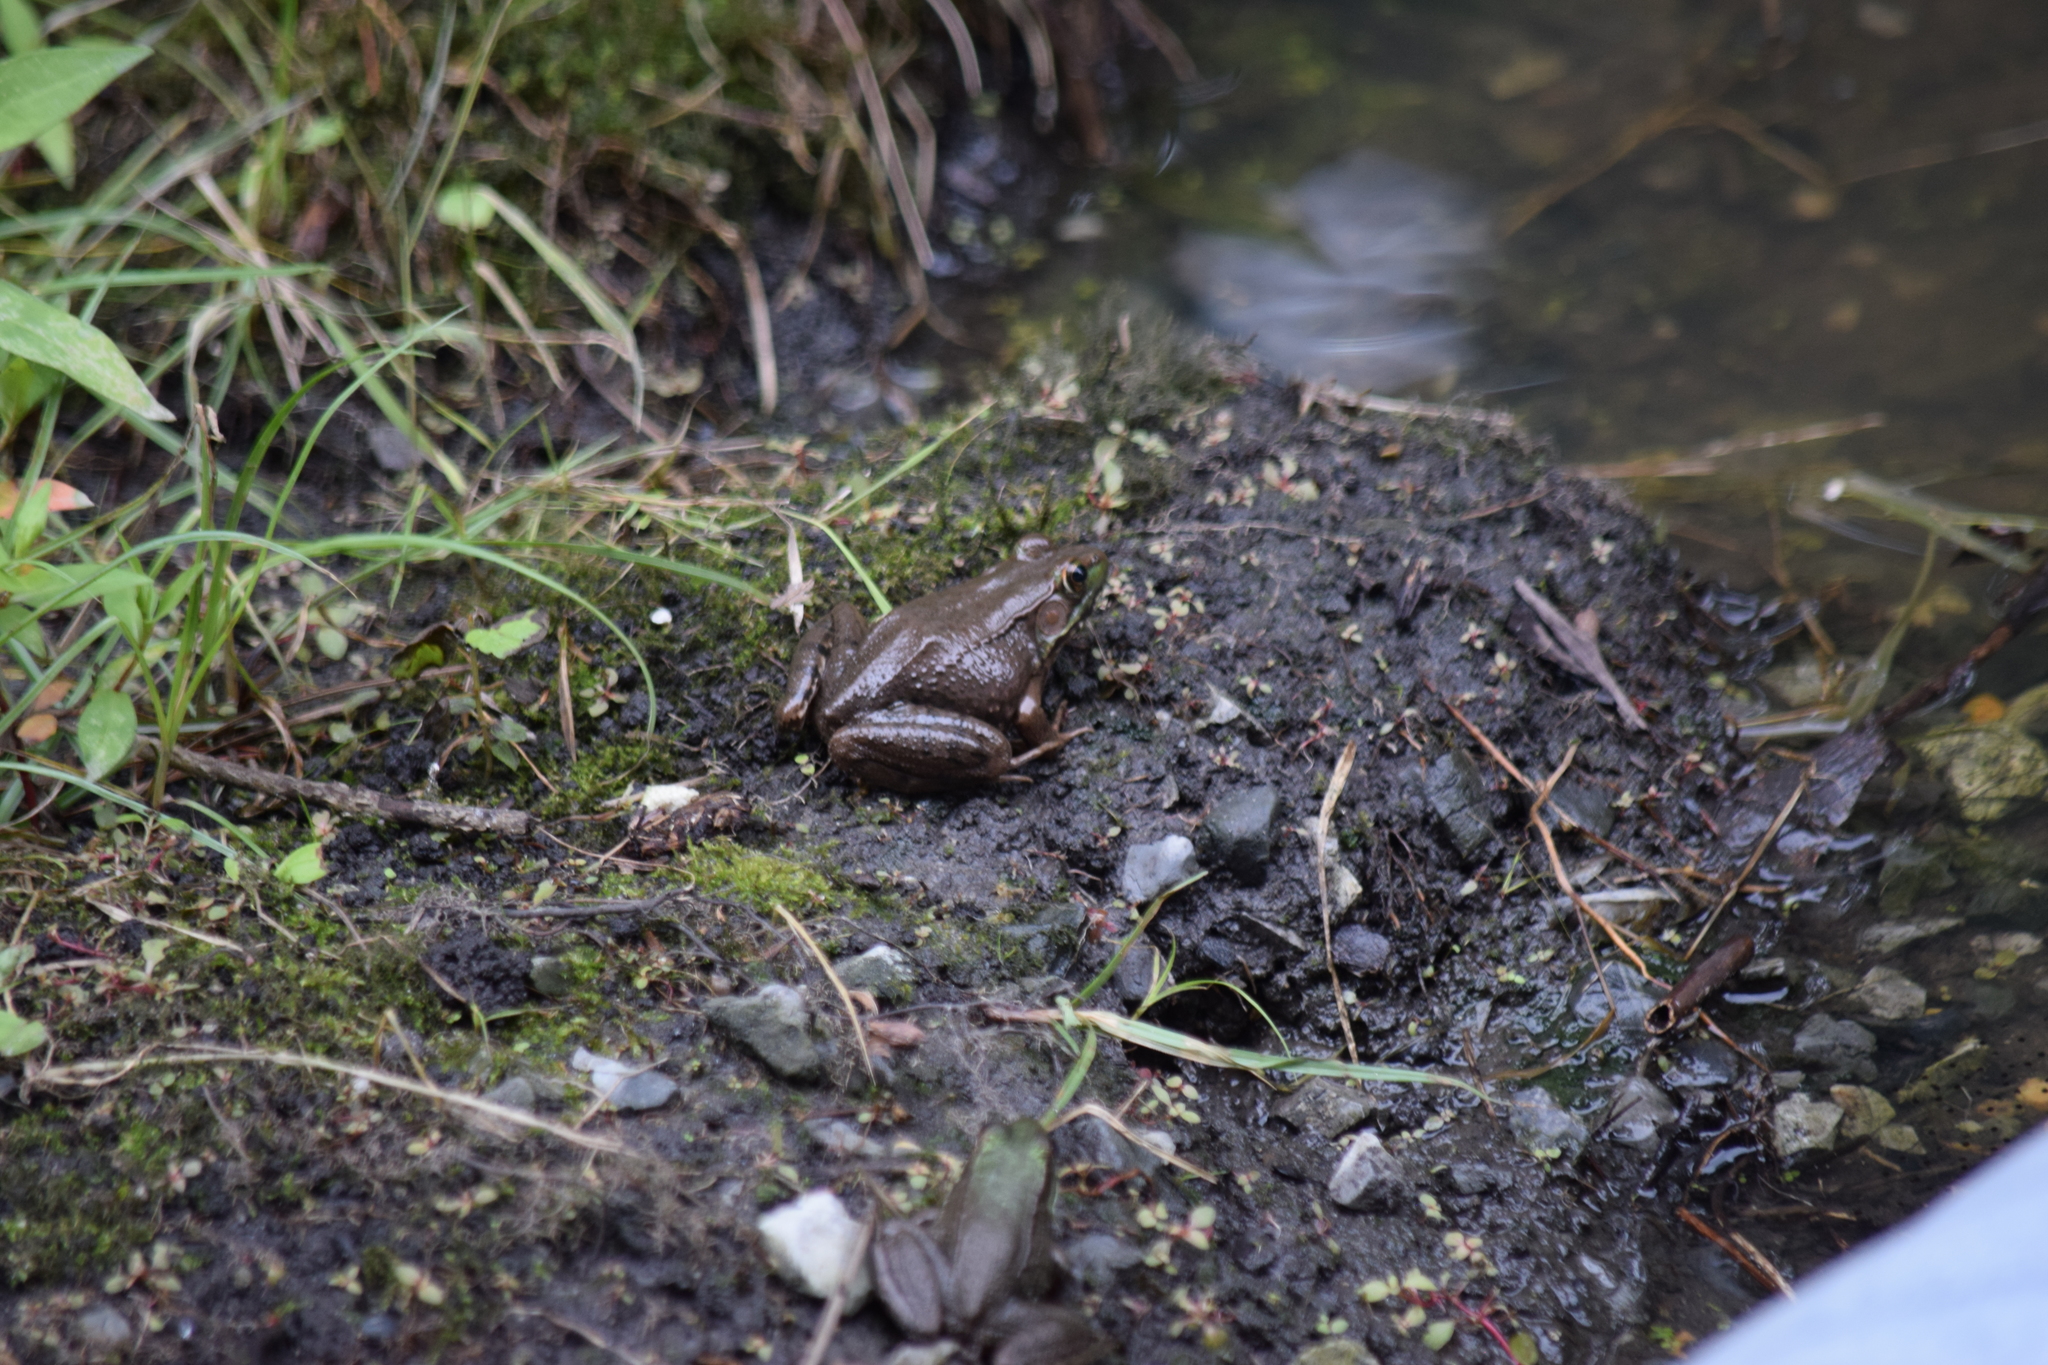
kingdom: Animalia
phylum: Chordata
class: Amphibia
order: Anura
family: Ranidae
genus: Lithobates
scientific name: Lithobates clamitans
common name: Green frog
